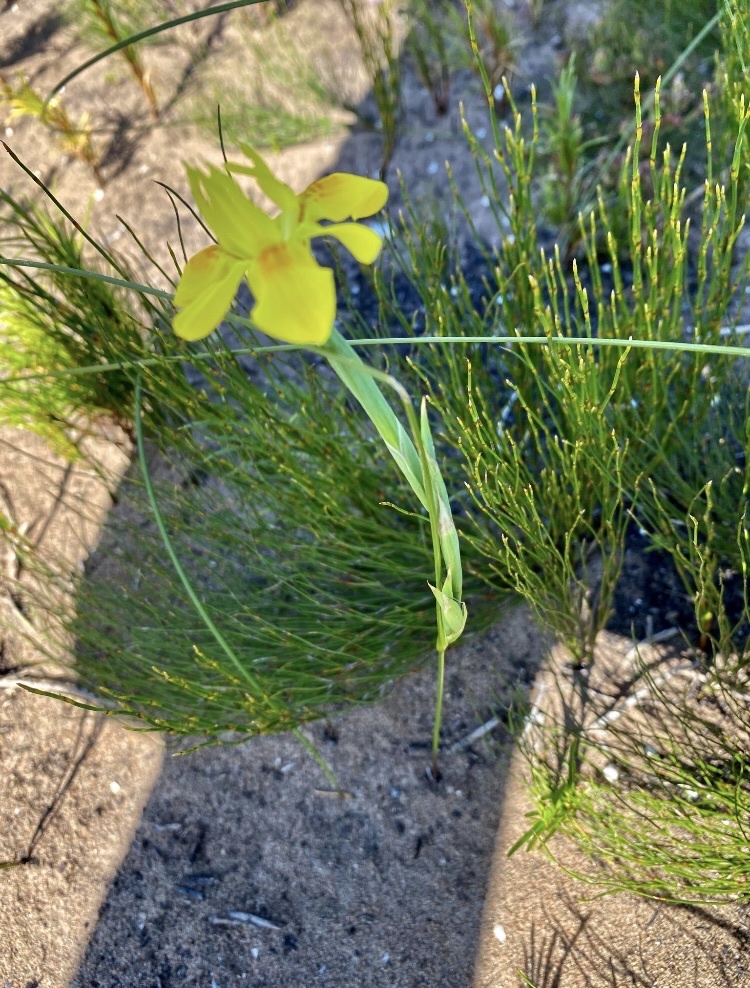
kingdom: Plantae
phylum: Tracheophyta
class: Liliopsida
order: Asparagales
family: Iridaceae
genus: Moraea
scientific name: Moraea fugax
